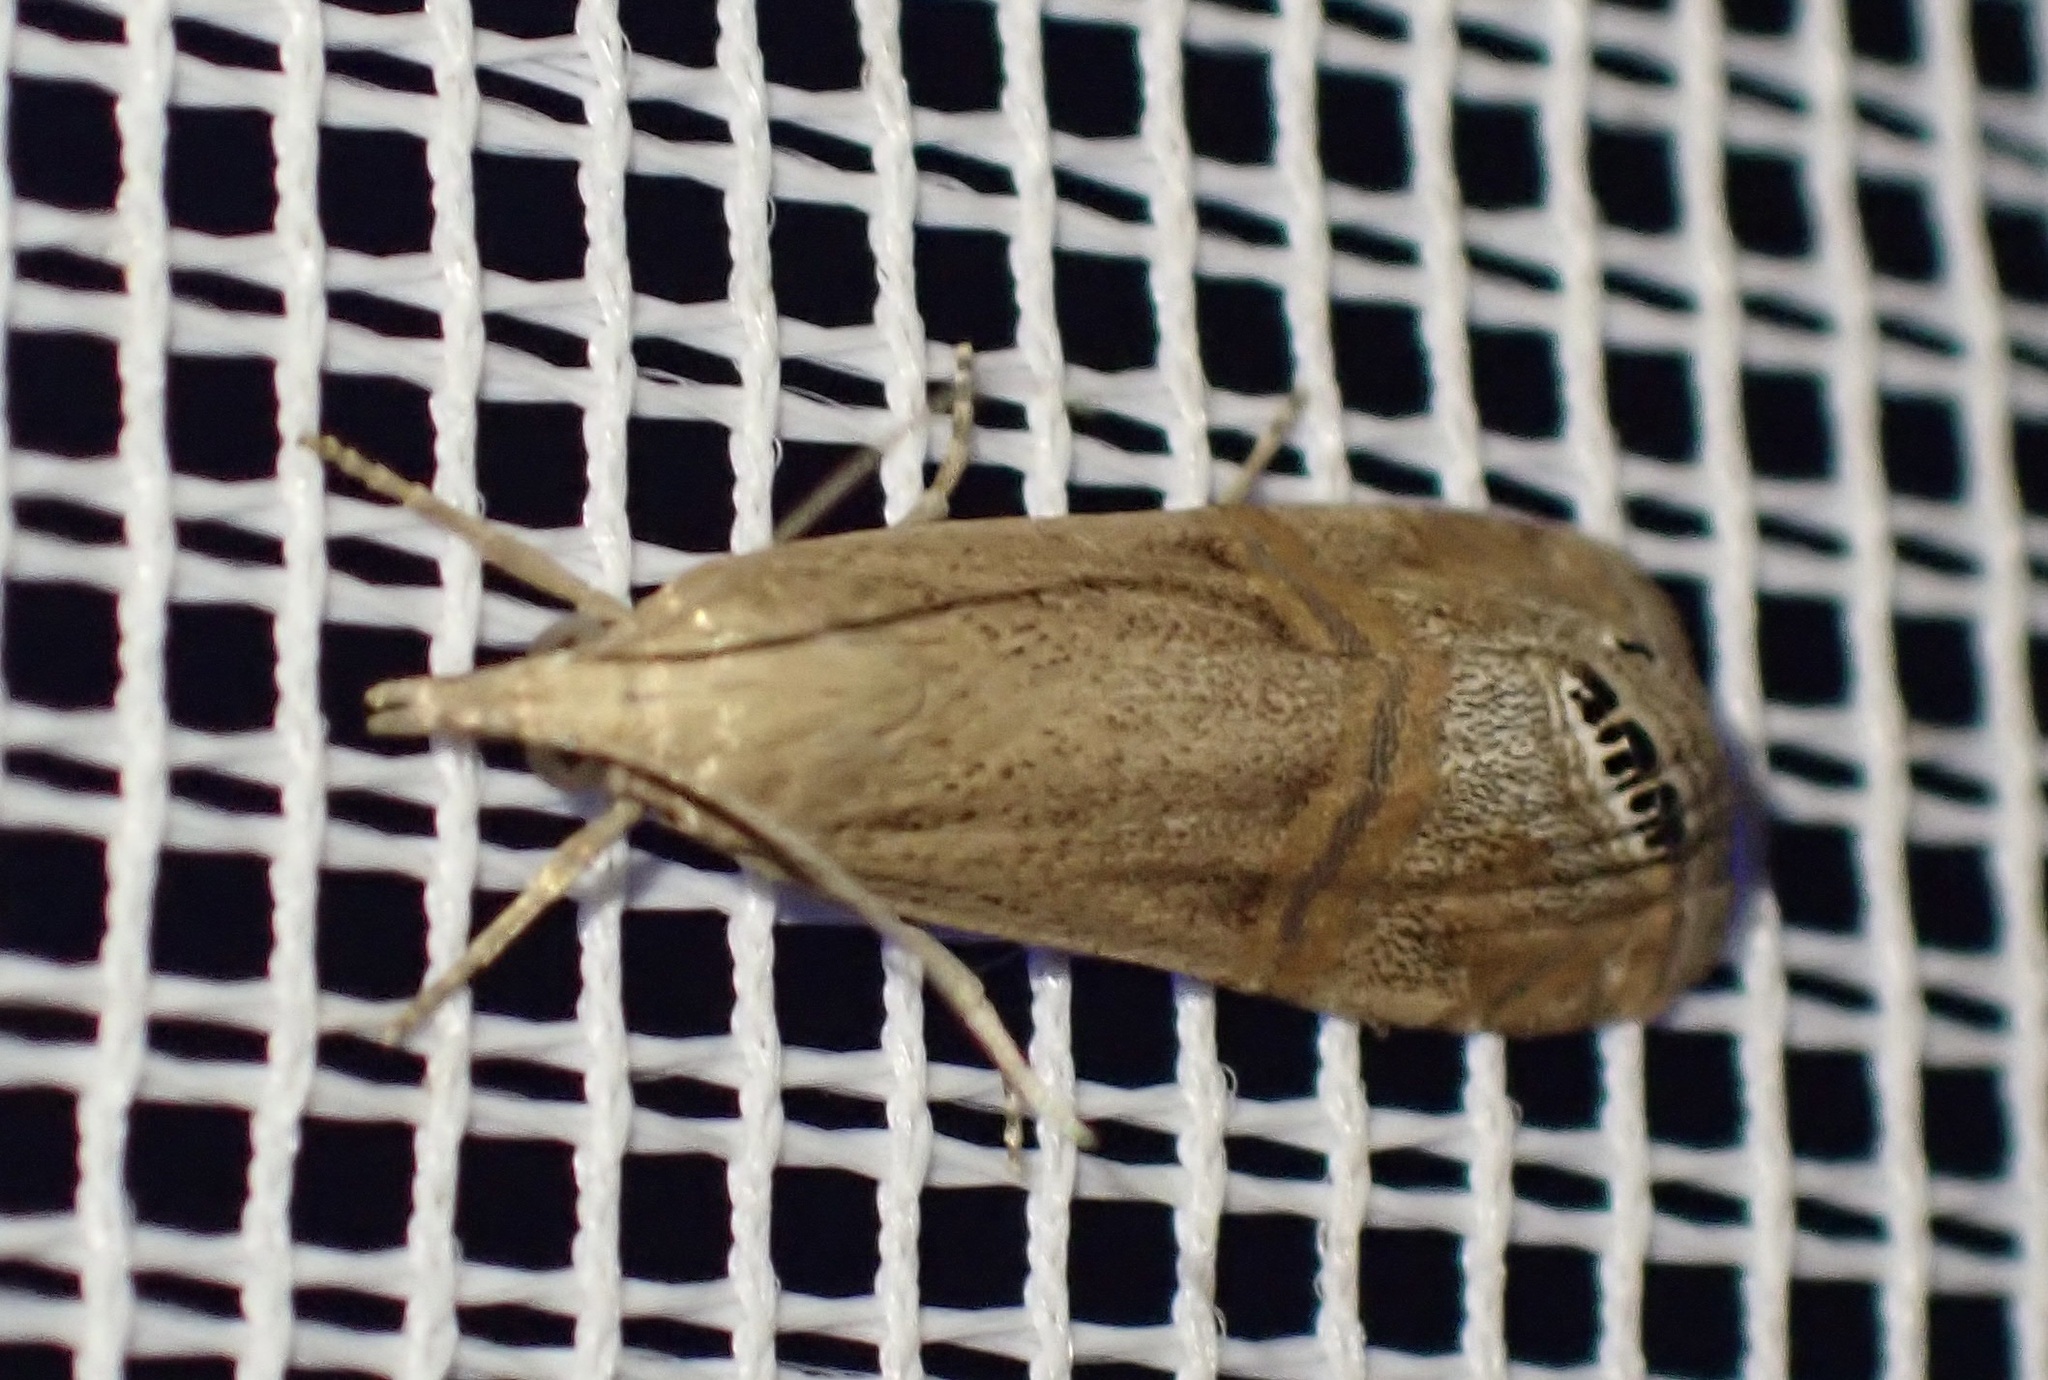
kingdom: Animalia
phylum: Arthropoda
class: Insecta
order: Lepidoptera
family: Crambidae
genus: Euchromius
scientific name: Euchromius ocellea
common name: Necklace veneer moth
